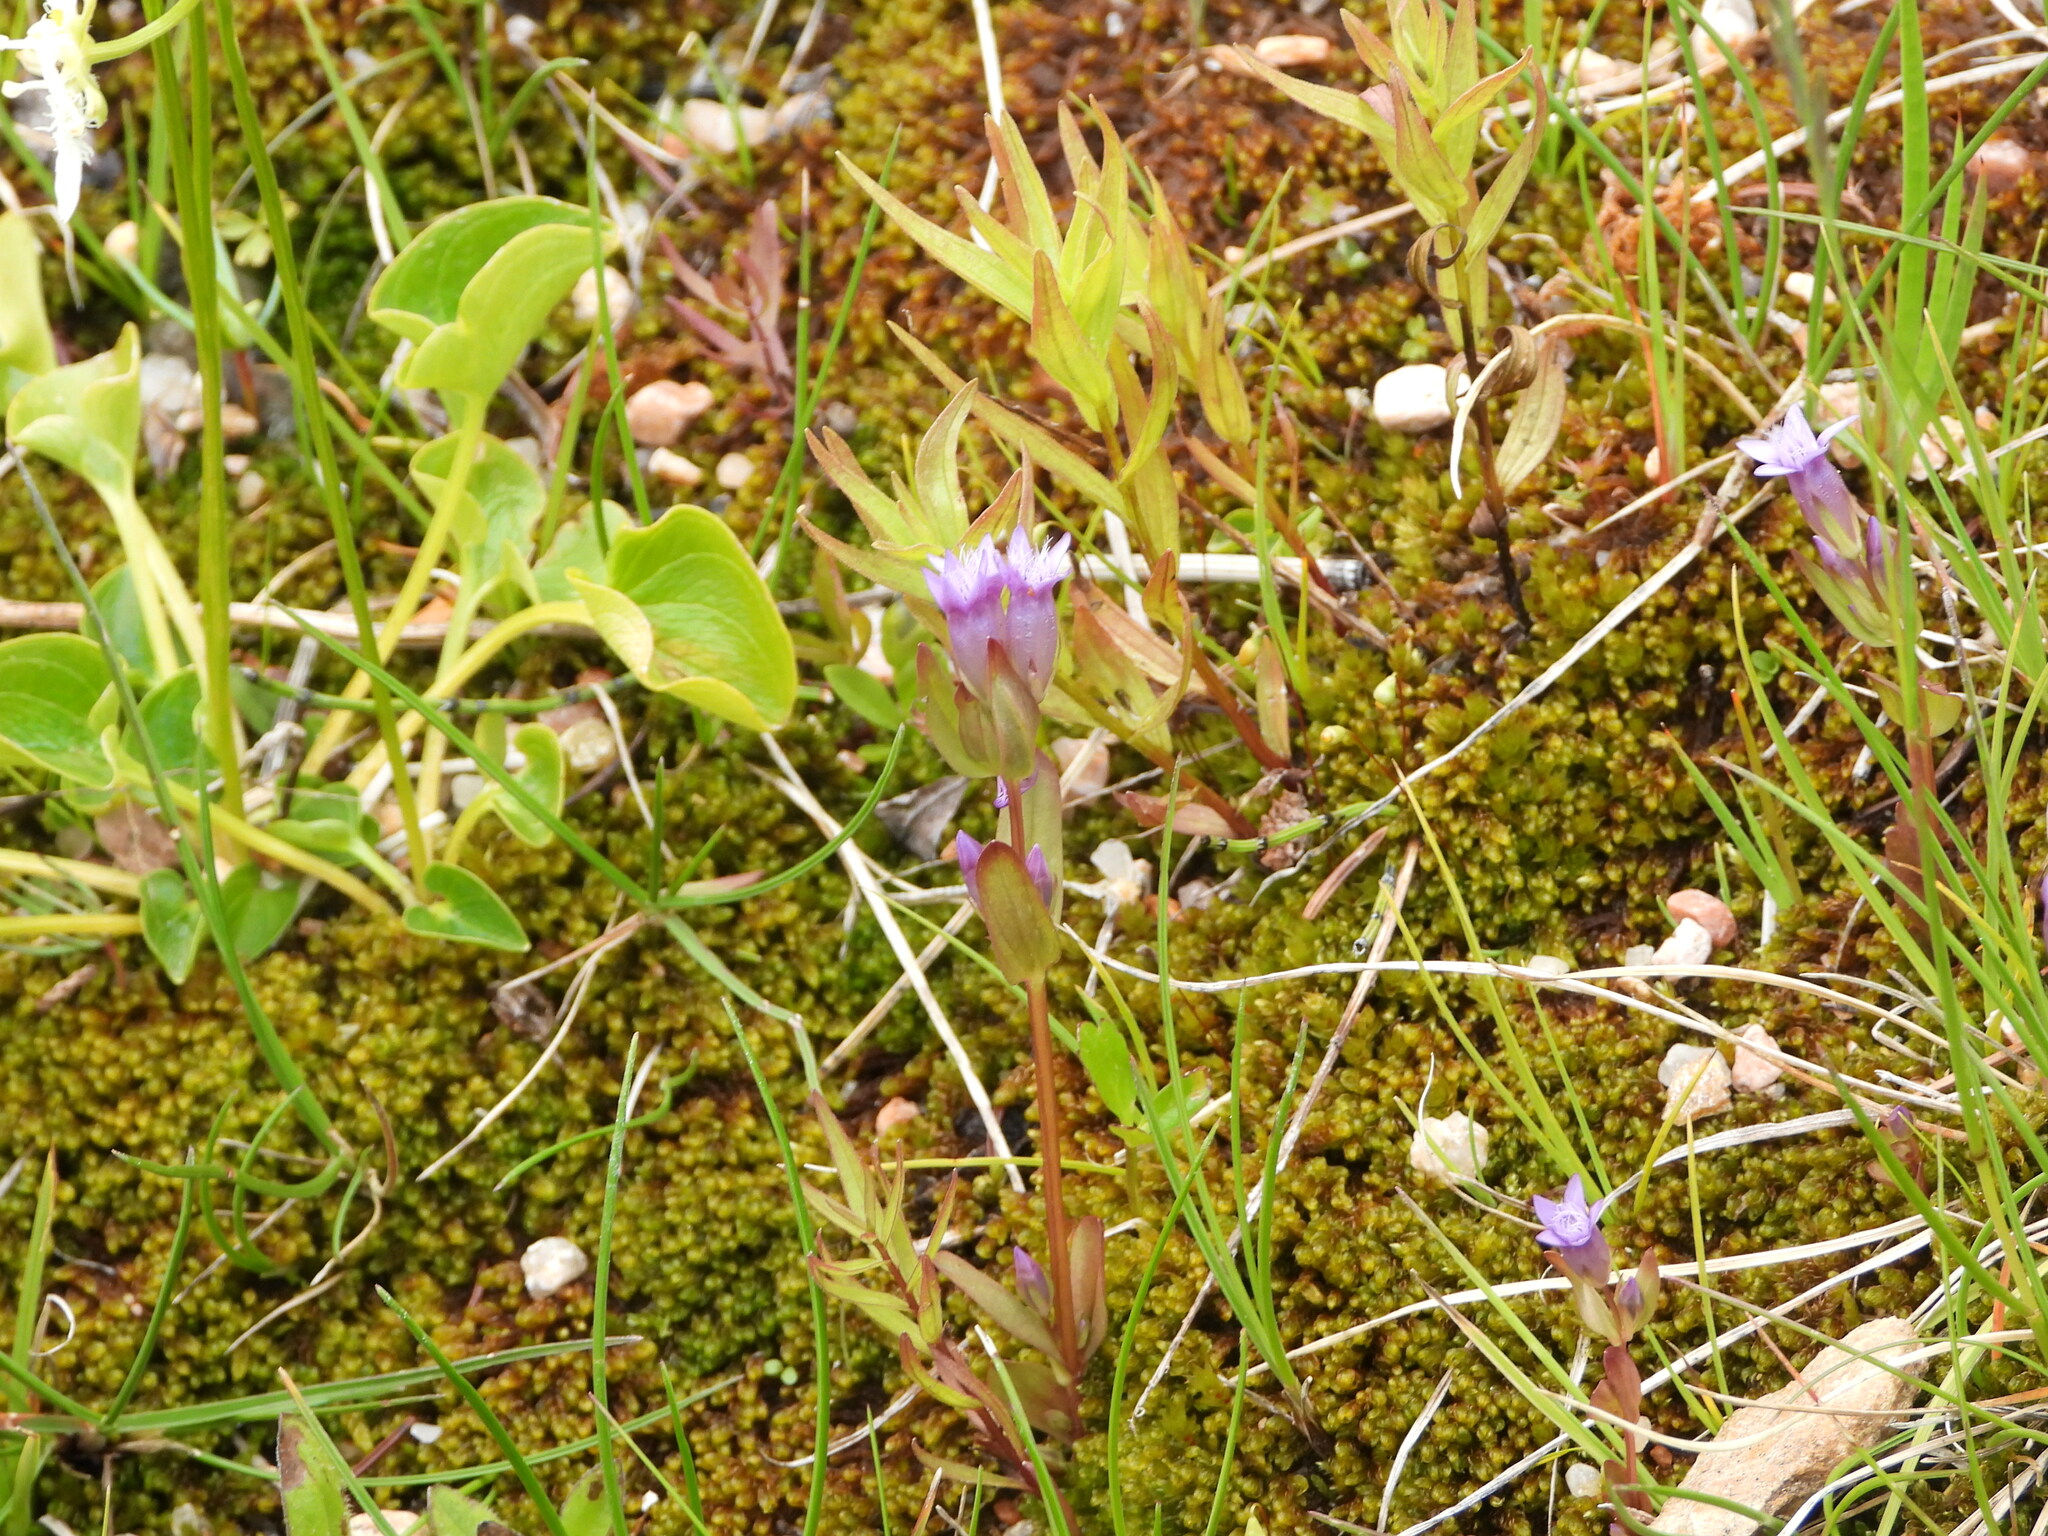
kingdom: Plantae
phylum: Tracheophyta
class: Magnoliopsida
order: Gentianales
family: Gentianaceae
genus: Gentianella
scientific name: Gentianella amarella
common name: Autumn gentian
